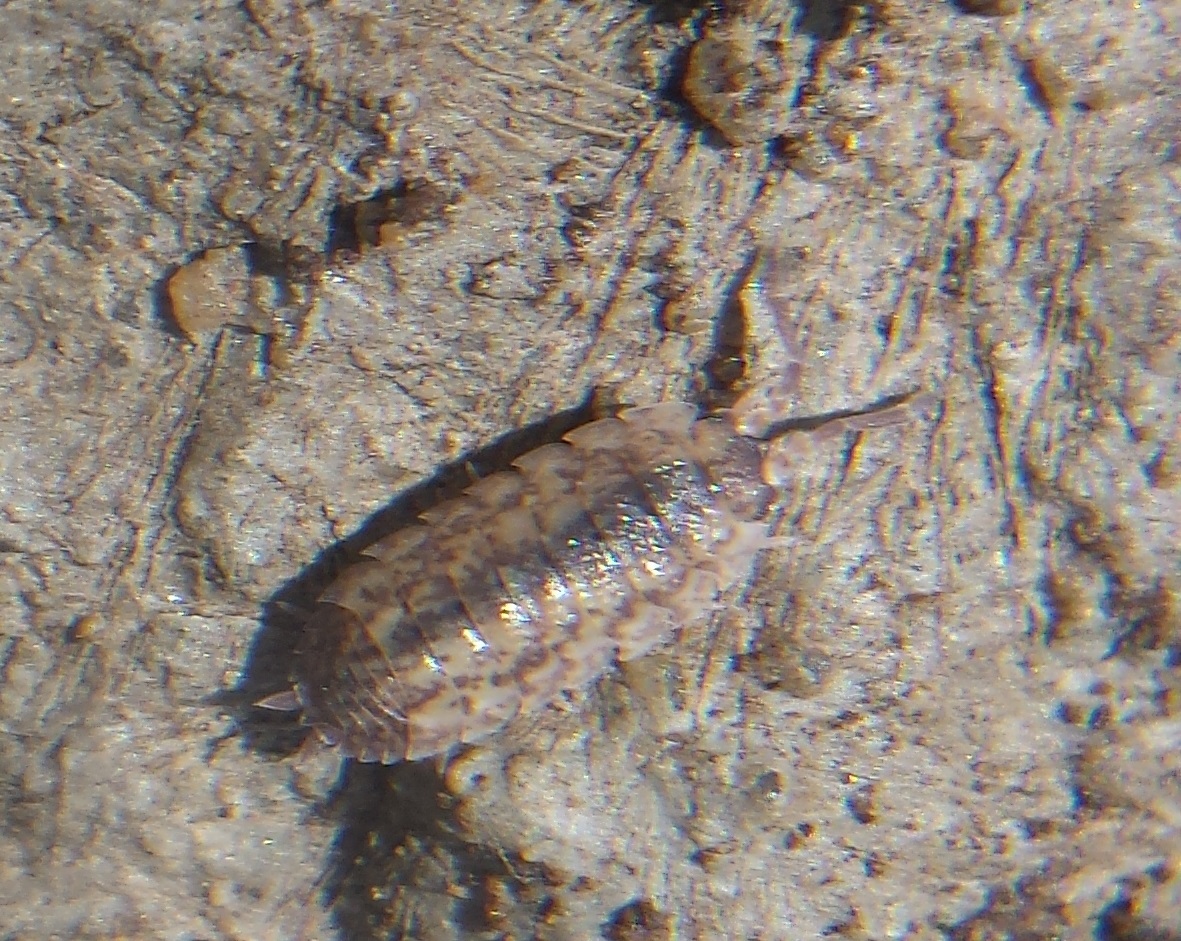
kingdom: Animalia
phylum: Arthropoda
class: Malacostraca
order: Isopoda
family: Porcellionidae
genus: Porcellio
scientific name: Porcellio scaber
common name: Common rough woodlouse
